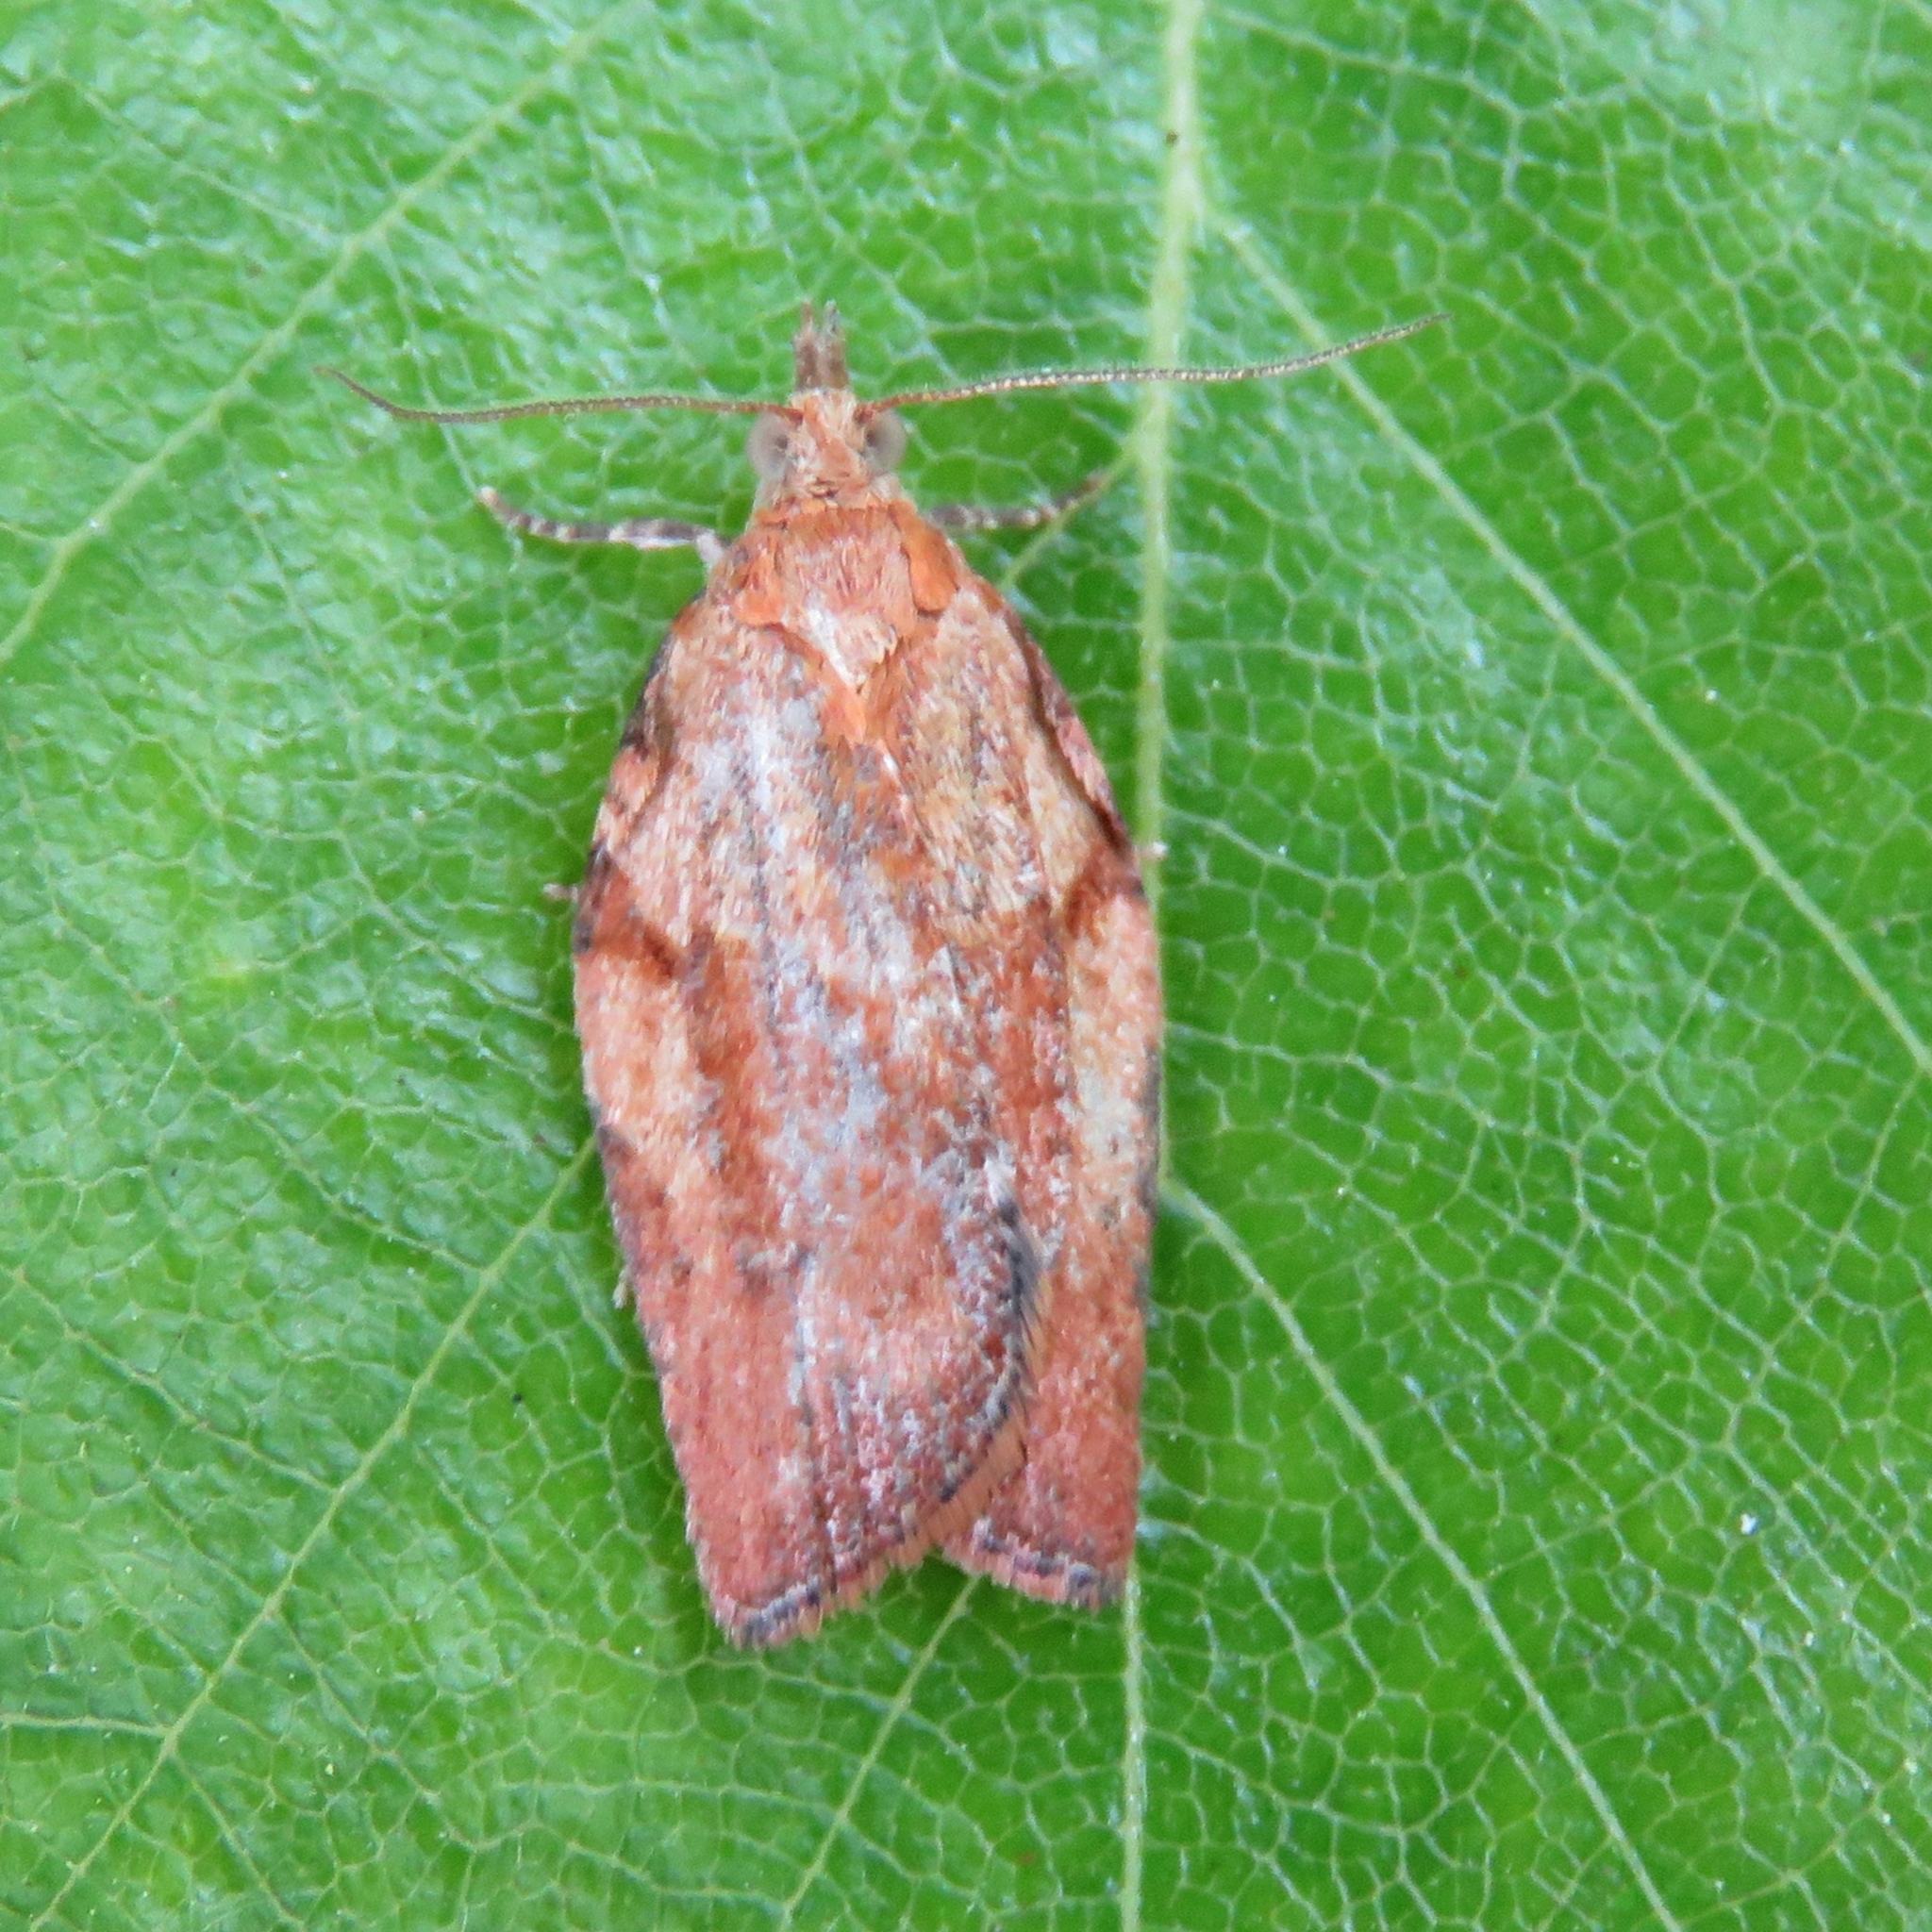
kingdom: Animalia
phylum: Arthropoda
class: Insecta
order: Lepidoptera
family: Tortricidae
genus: Epiphyas
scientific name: Epiphyas postvittana
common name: Light brown apple moth
